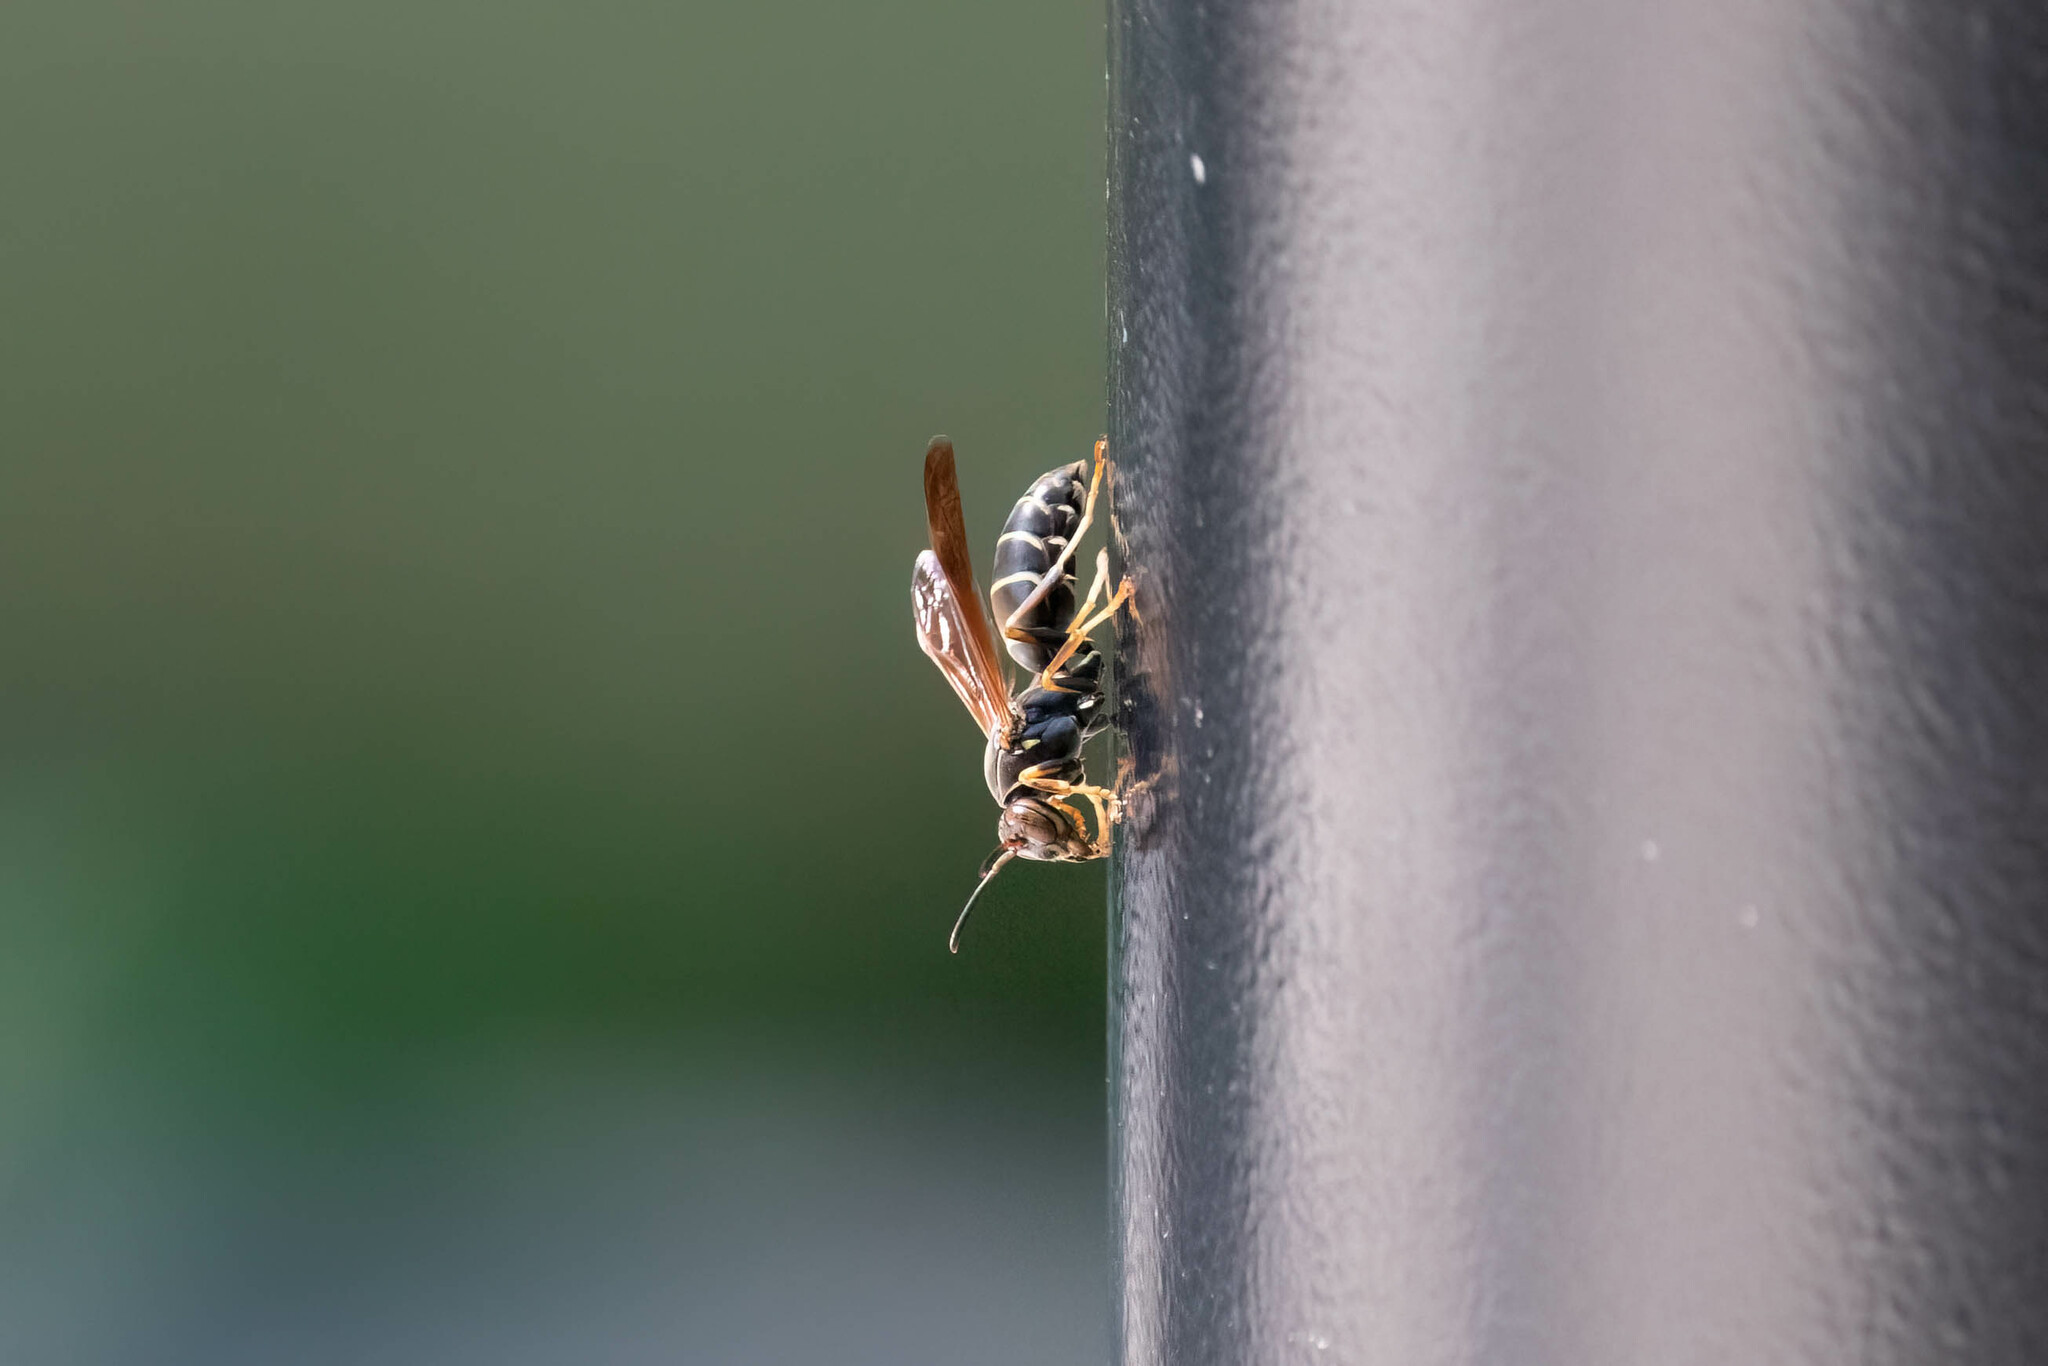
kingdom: Animalia
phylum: Arthropoda
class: Insecta
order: Hymenoptera
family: Eumenidae
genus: Polistes
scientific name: Polistes fuscatus
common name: Dark paper wasp
